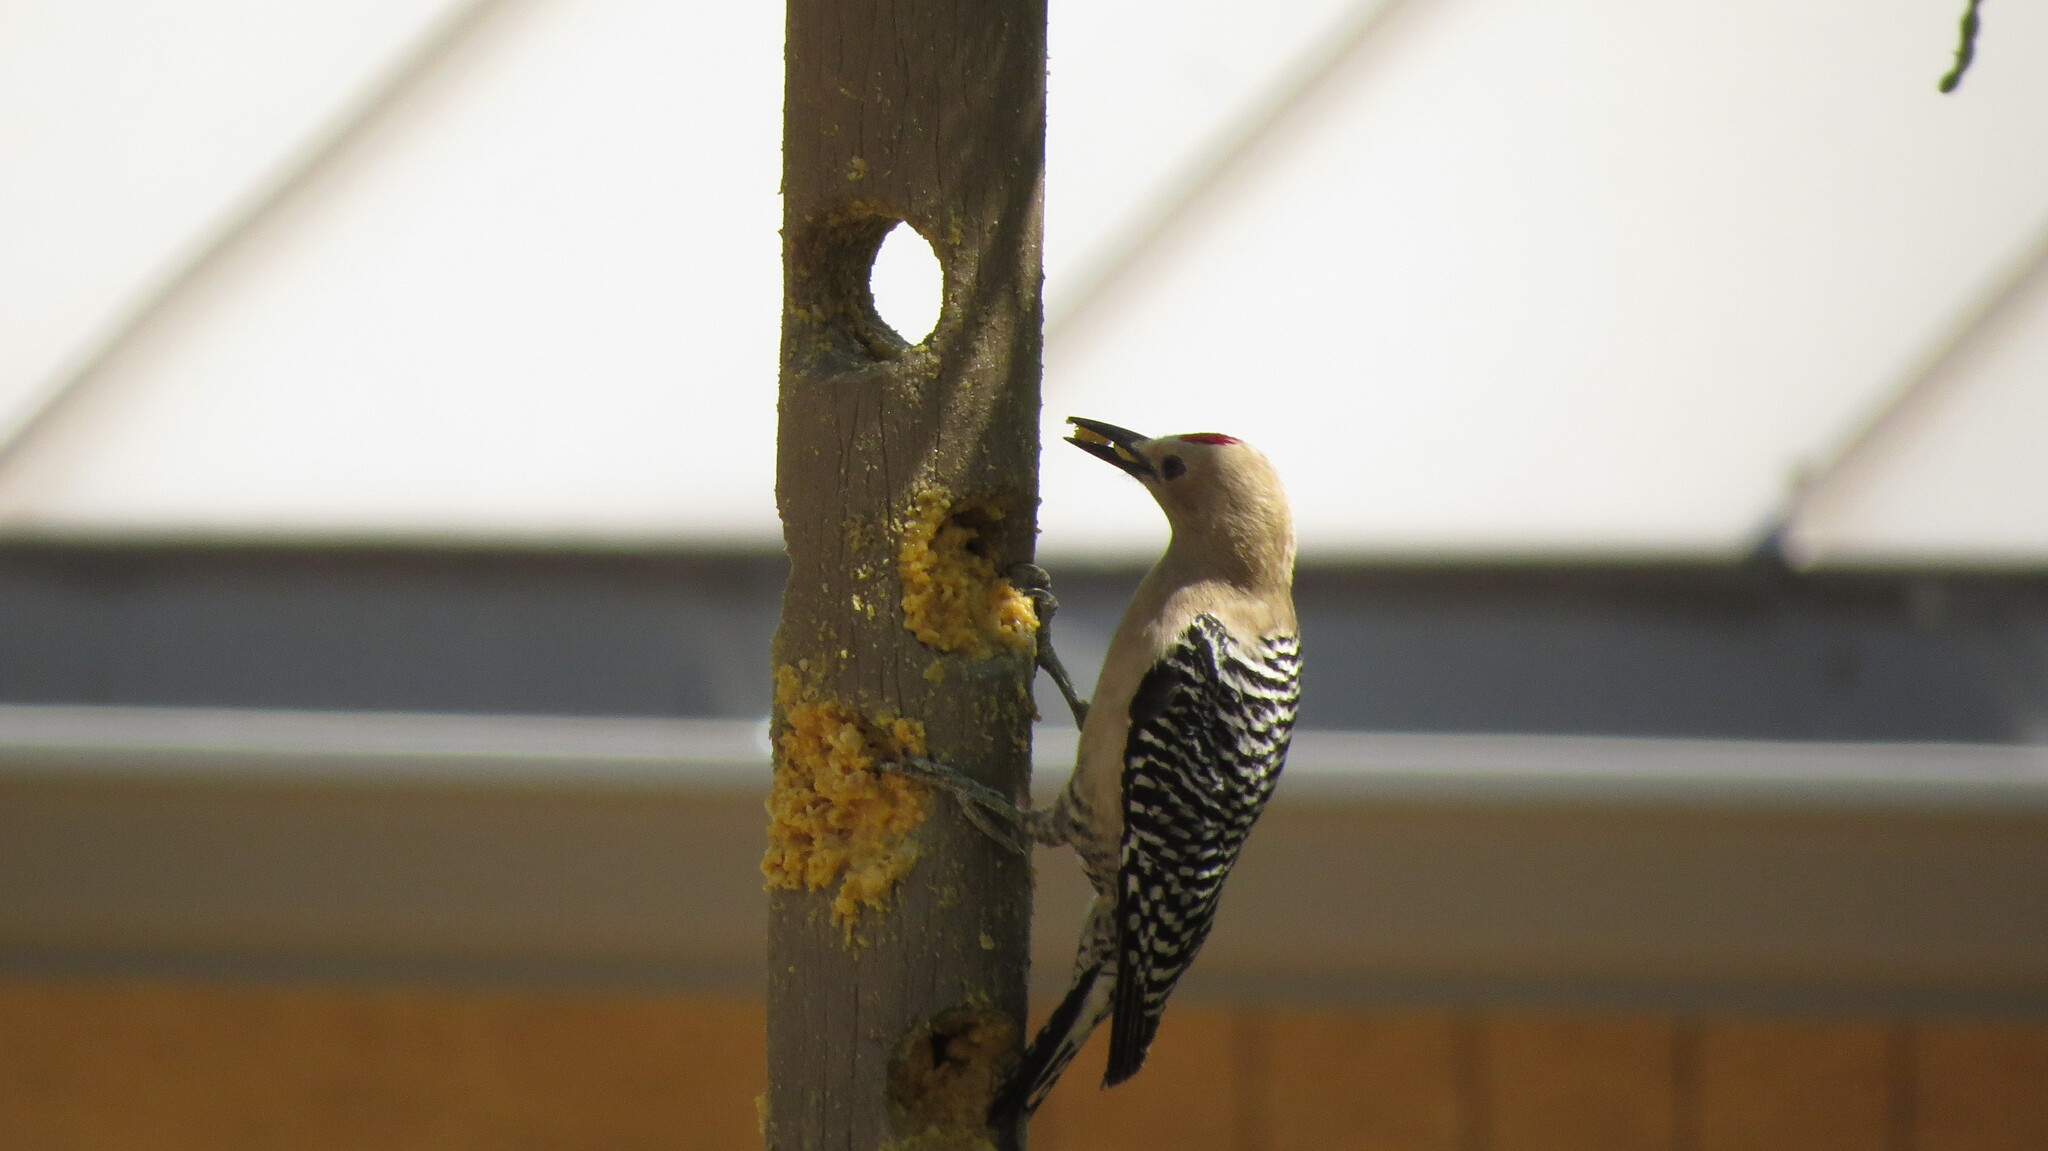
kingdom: Animalia
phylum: Chordata
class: Aves
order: Piciformes
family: Picidae
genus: Melanerpes
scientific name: Melanerpes uropygialis
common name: Gila woodpecker
